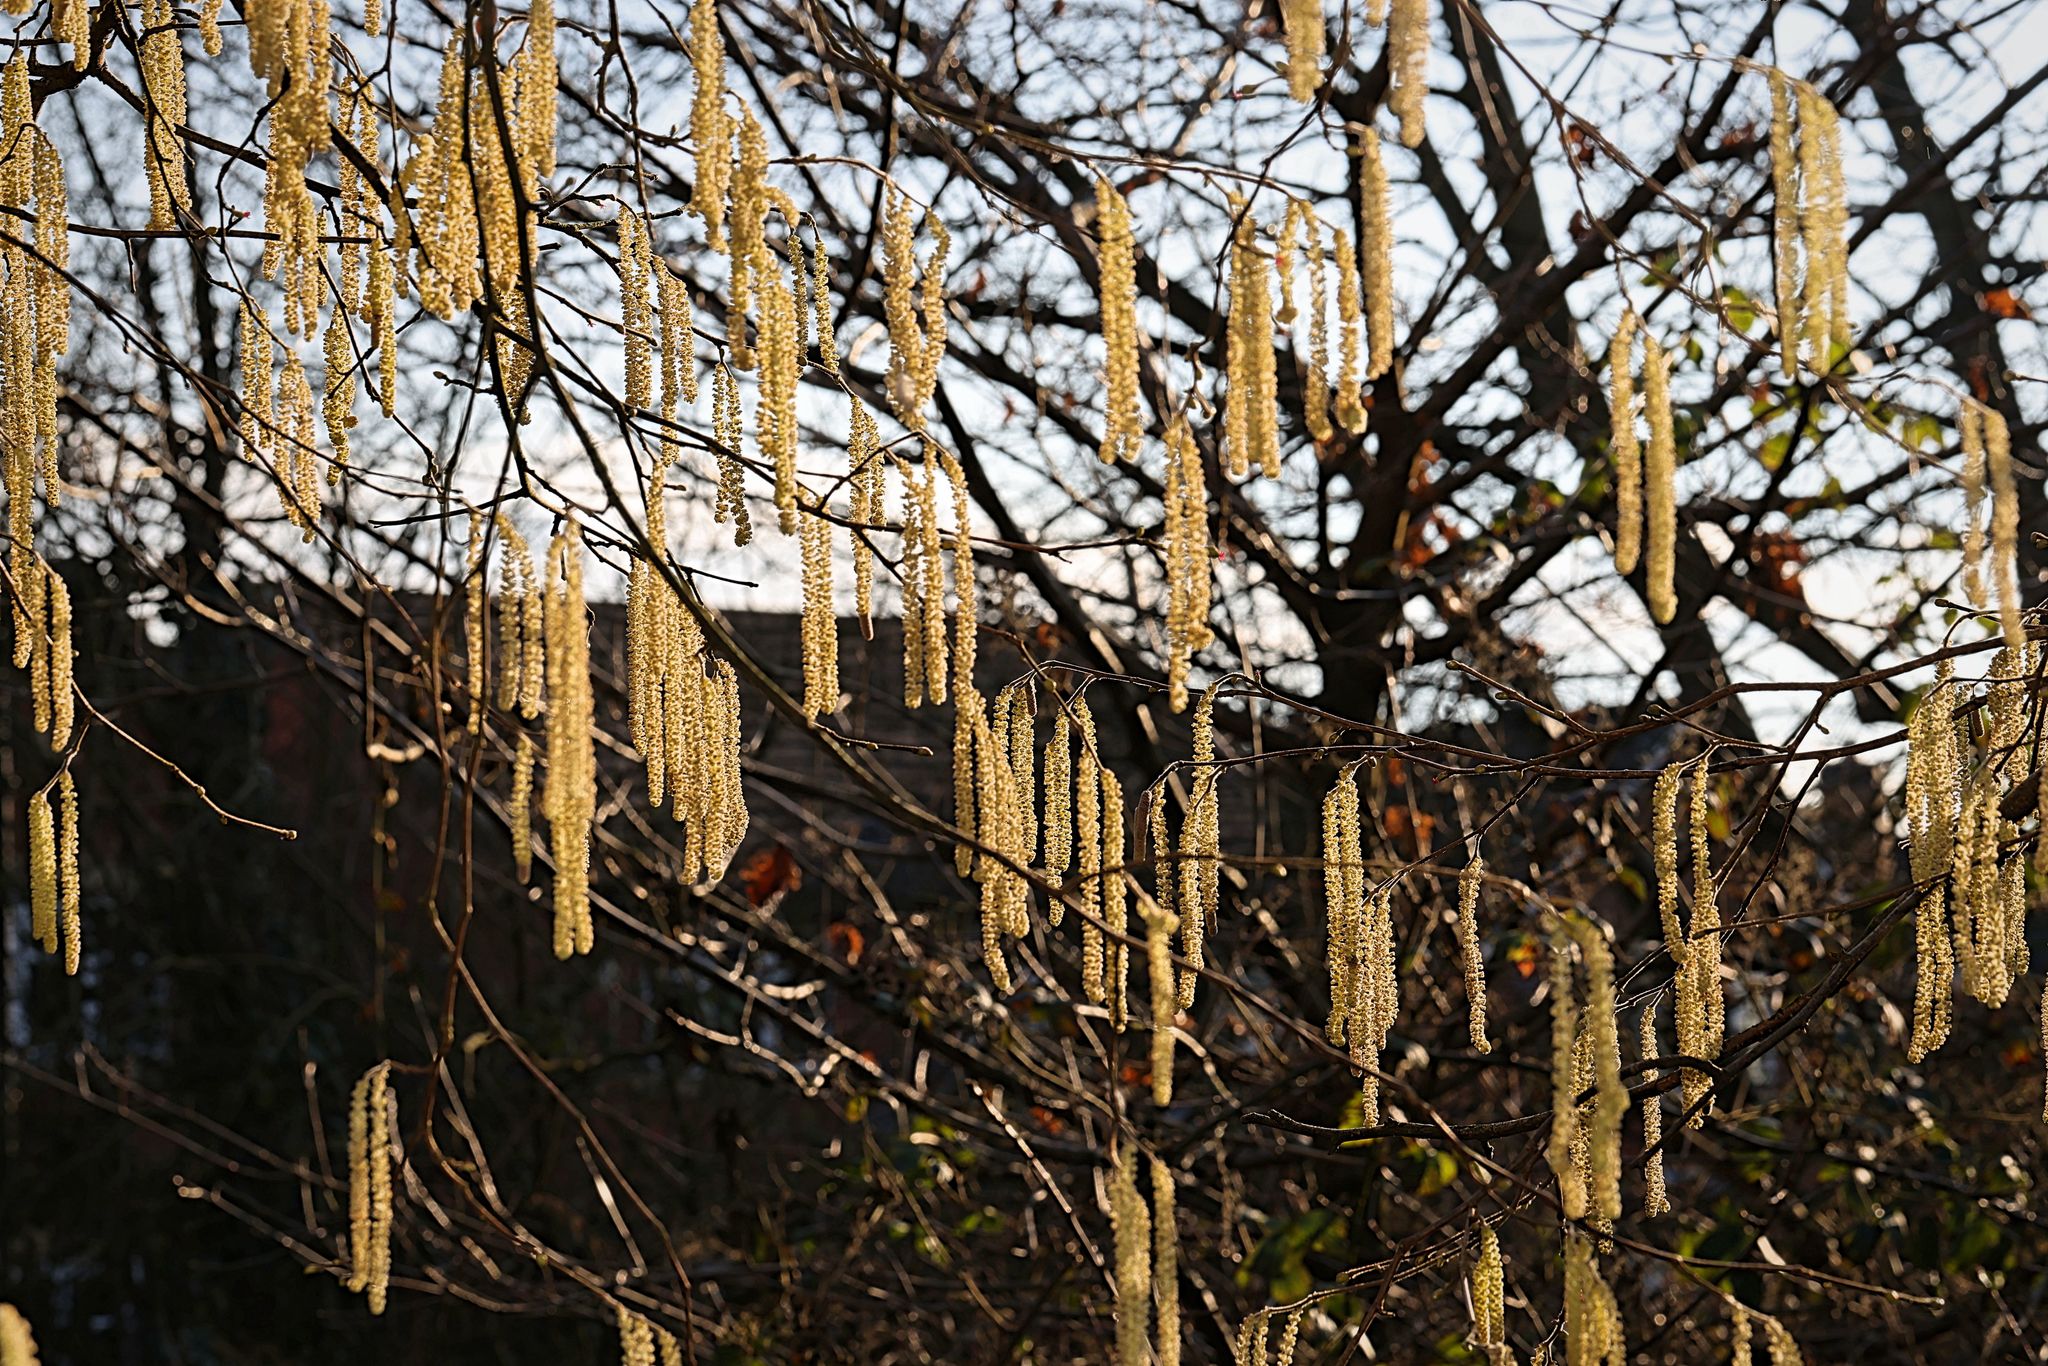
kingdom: Plantae
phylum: Tracheophyta
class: Magnoliopsida
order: Fagales
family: Betulaceae
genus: Corylus
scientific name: Corylus avellana
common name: European hazel
